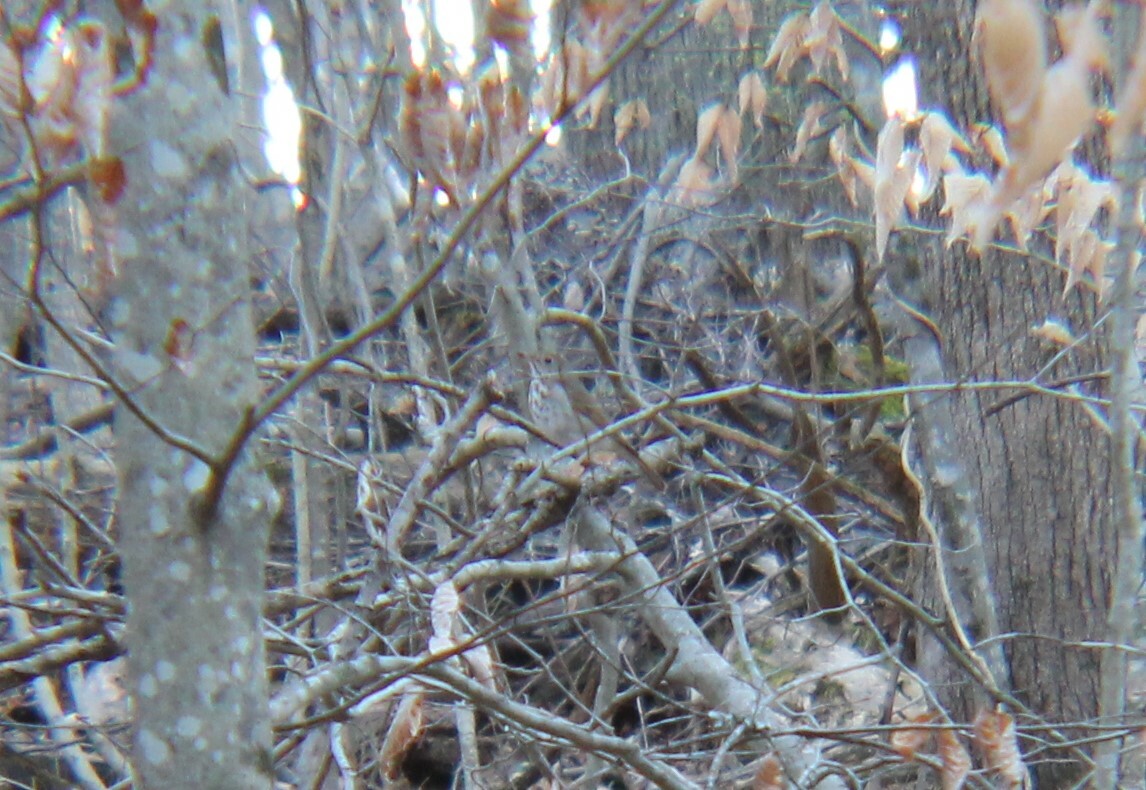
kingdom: Animalia
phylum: Chordata
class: Aves
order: Passeriformes
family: Turdidae
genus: Catharus
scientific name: Catharus guttatus
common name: Hermit thrush
